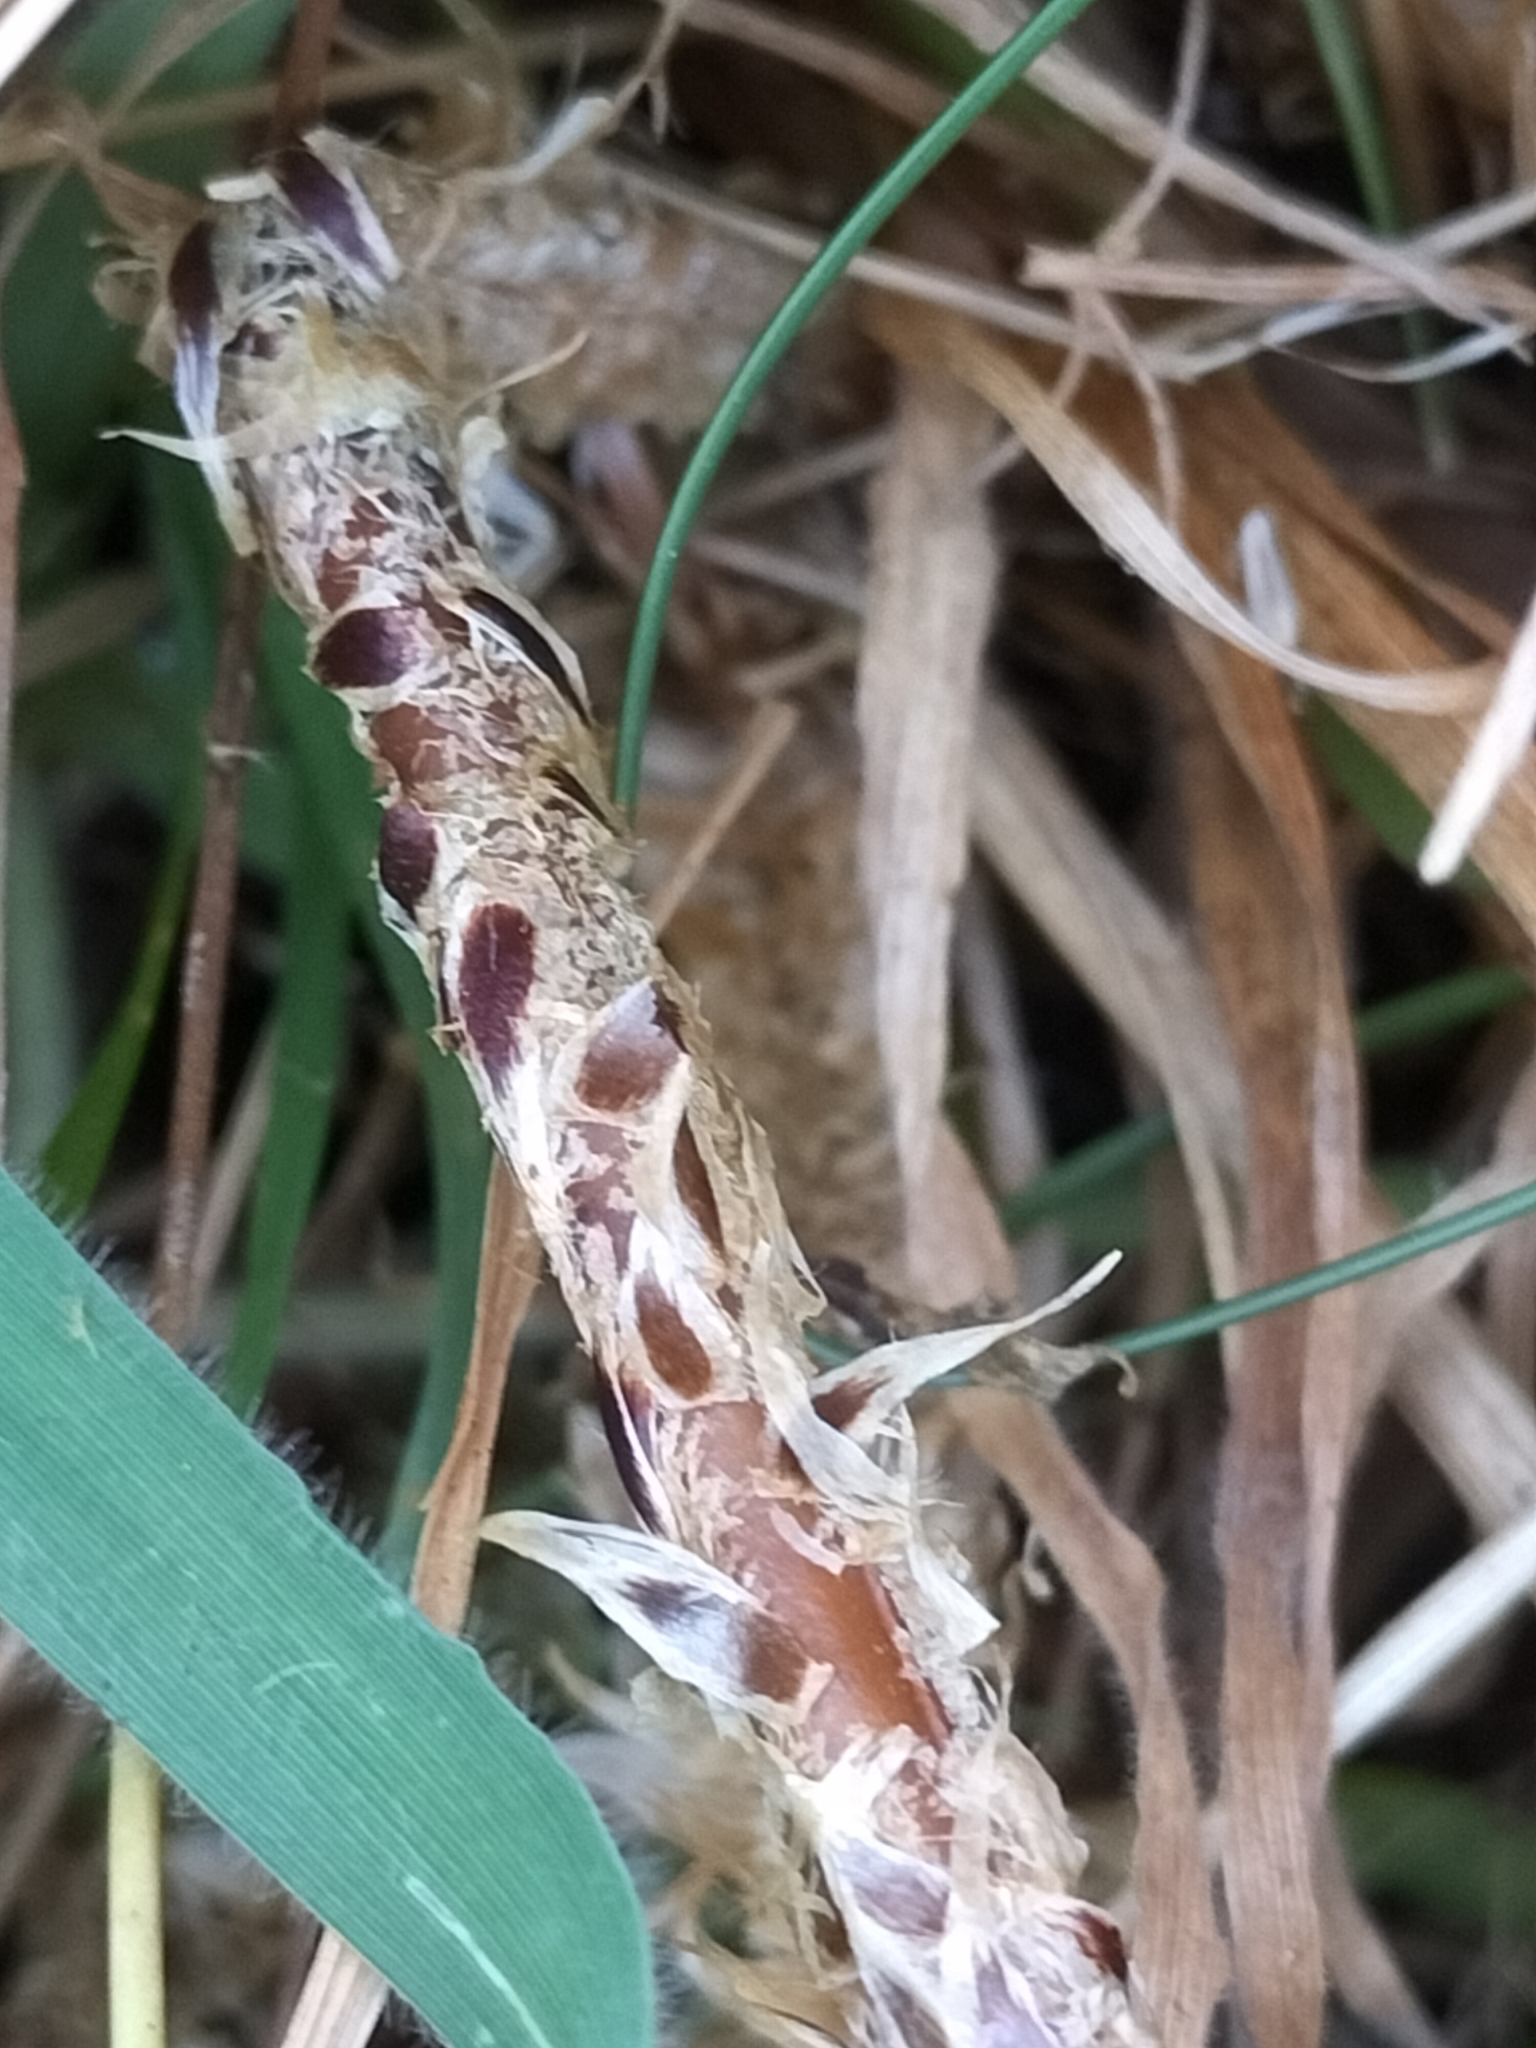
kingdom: Plantae
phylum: Tracheophyta
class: Polypodiopsida
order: Polypodiales
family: Dryopteridaceae
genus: Polystichum
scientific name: Polystichum vestitum
